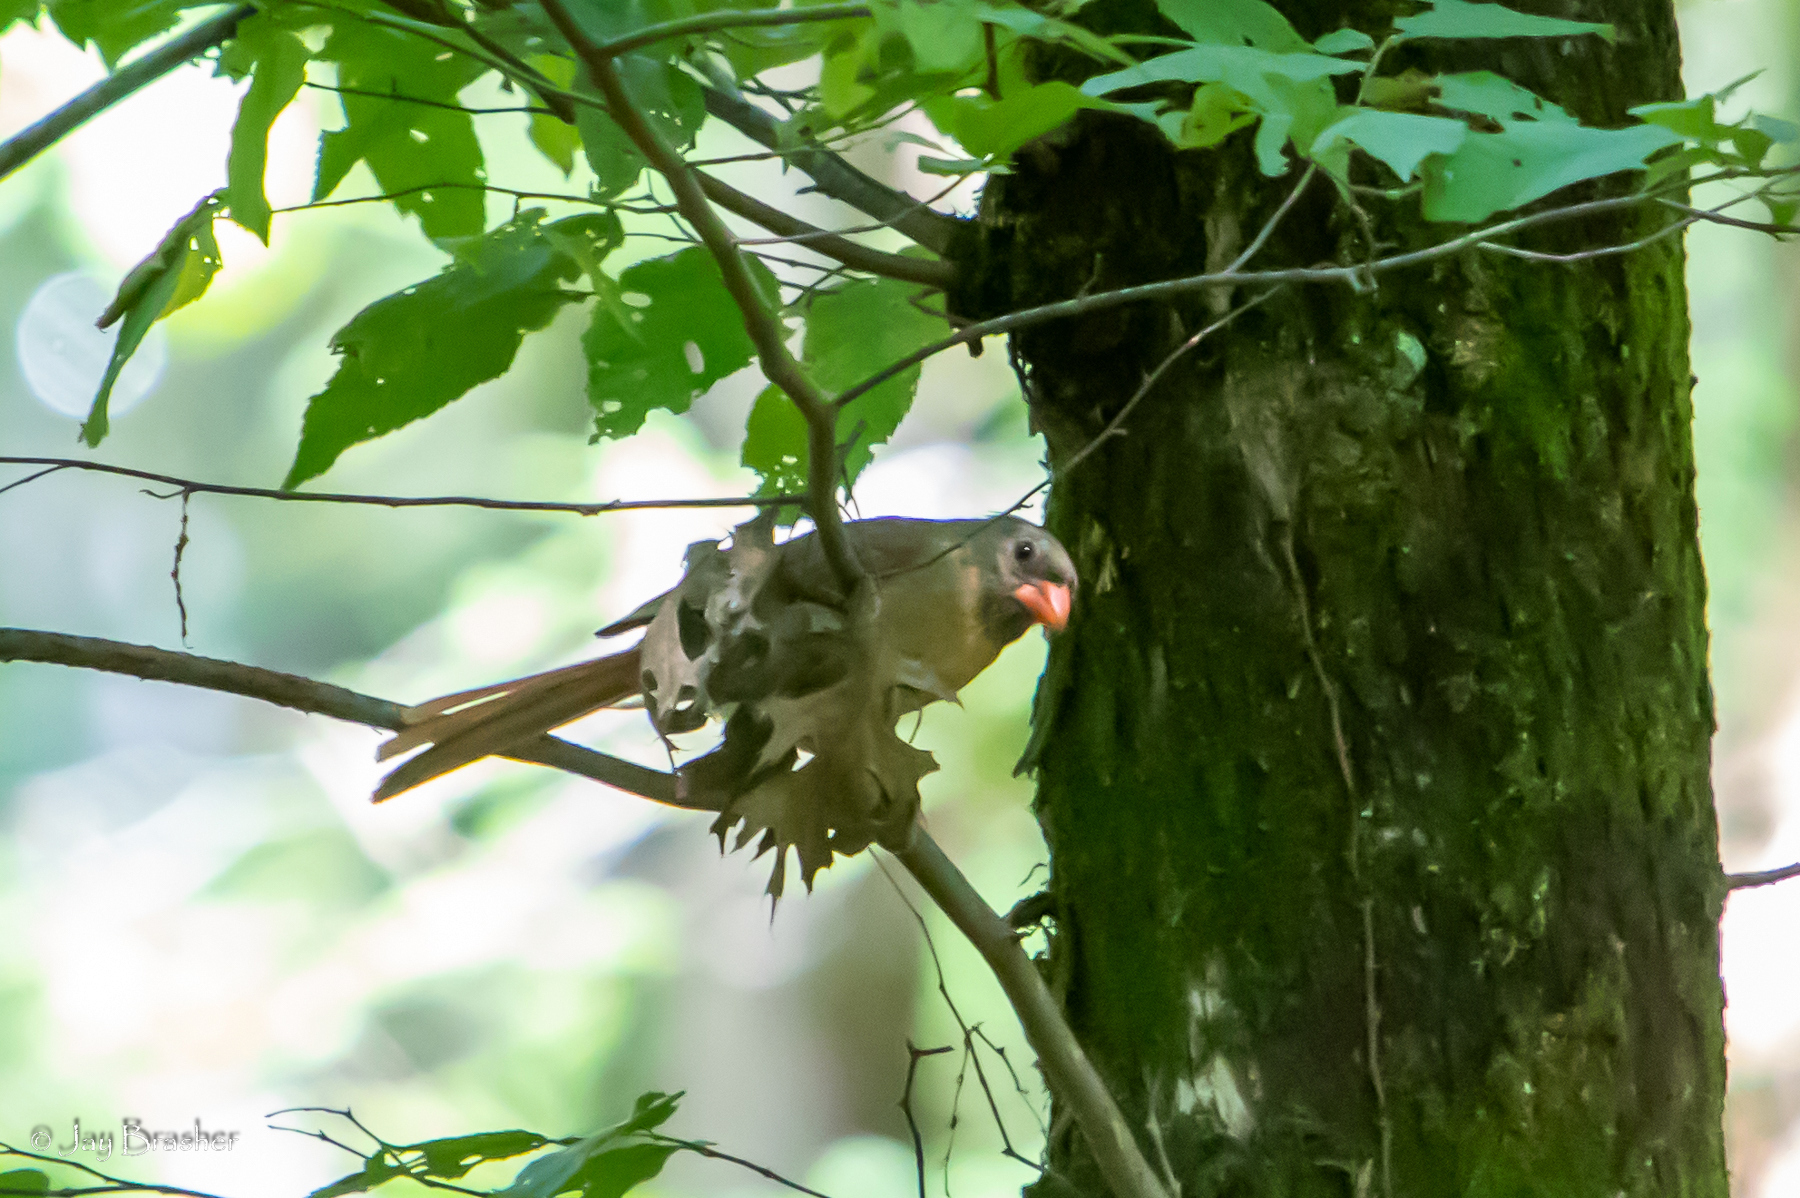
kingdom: Animalia
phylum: Chordata
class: Aves
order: Passeriformes
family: Cardinalidae
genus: Cardinalis
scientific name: Cardinalis cardinalis
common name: Northern cardinal
